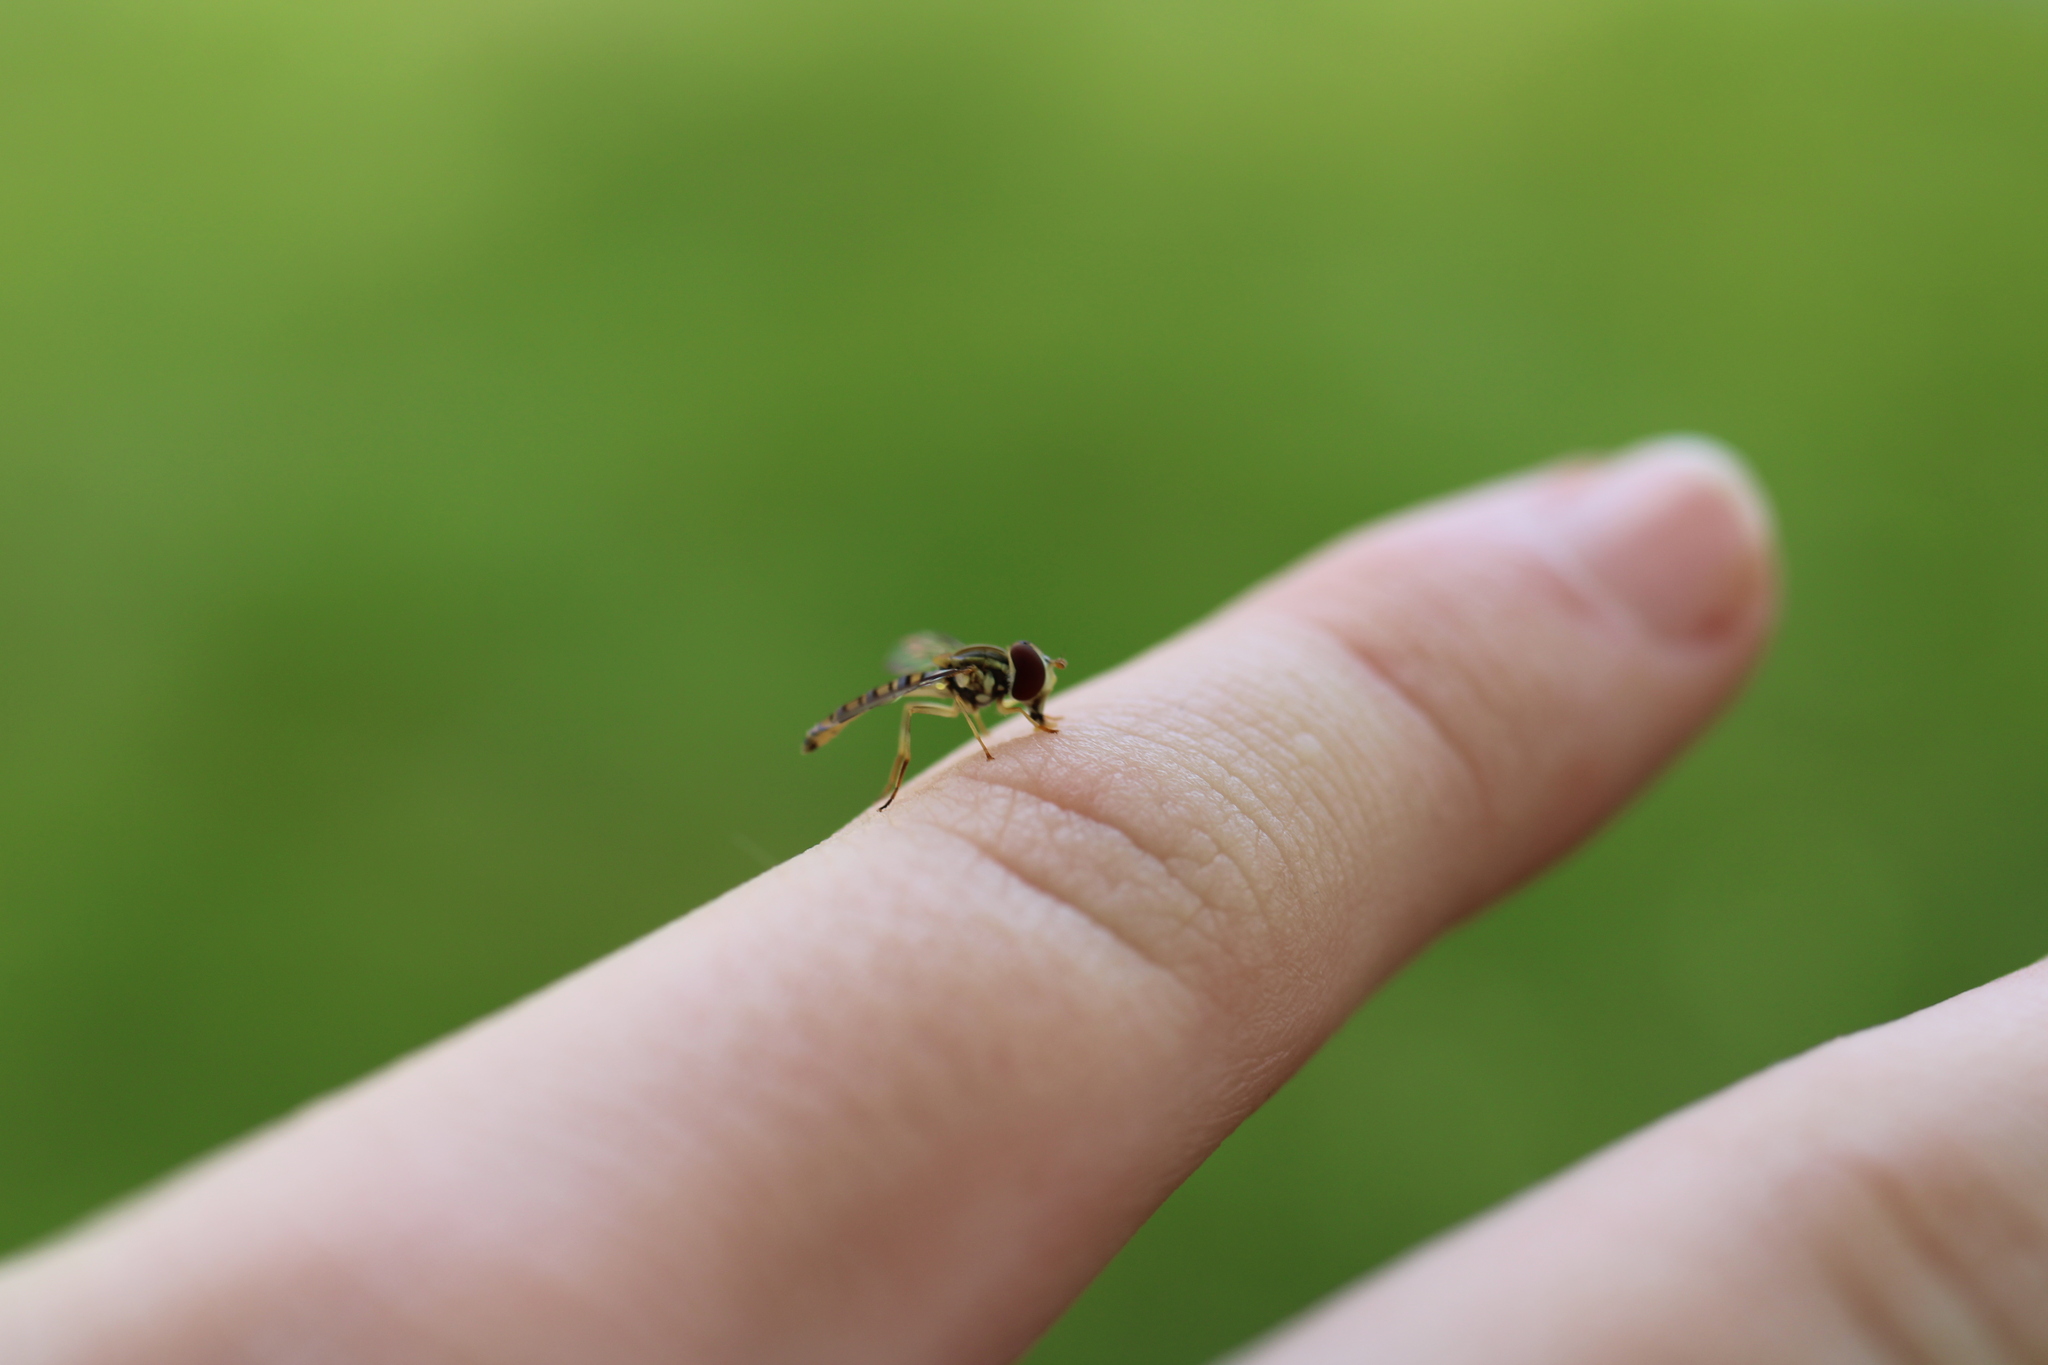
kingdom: Animalia
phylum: Arthropoda
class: Insecta
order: Diptera
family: Syrphidae
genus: Toxomerus
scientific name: Toxomerus politus
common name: Maize calligrapher
